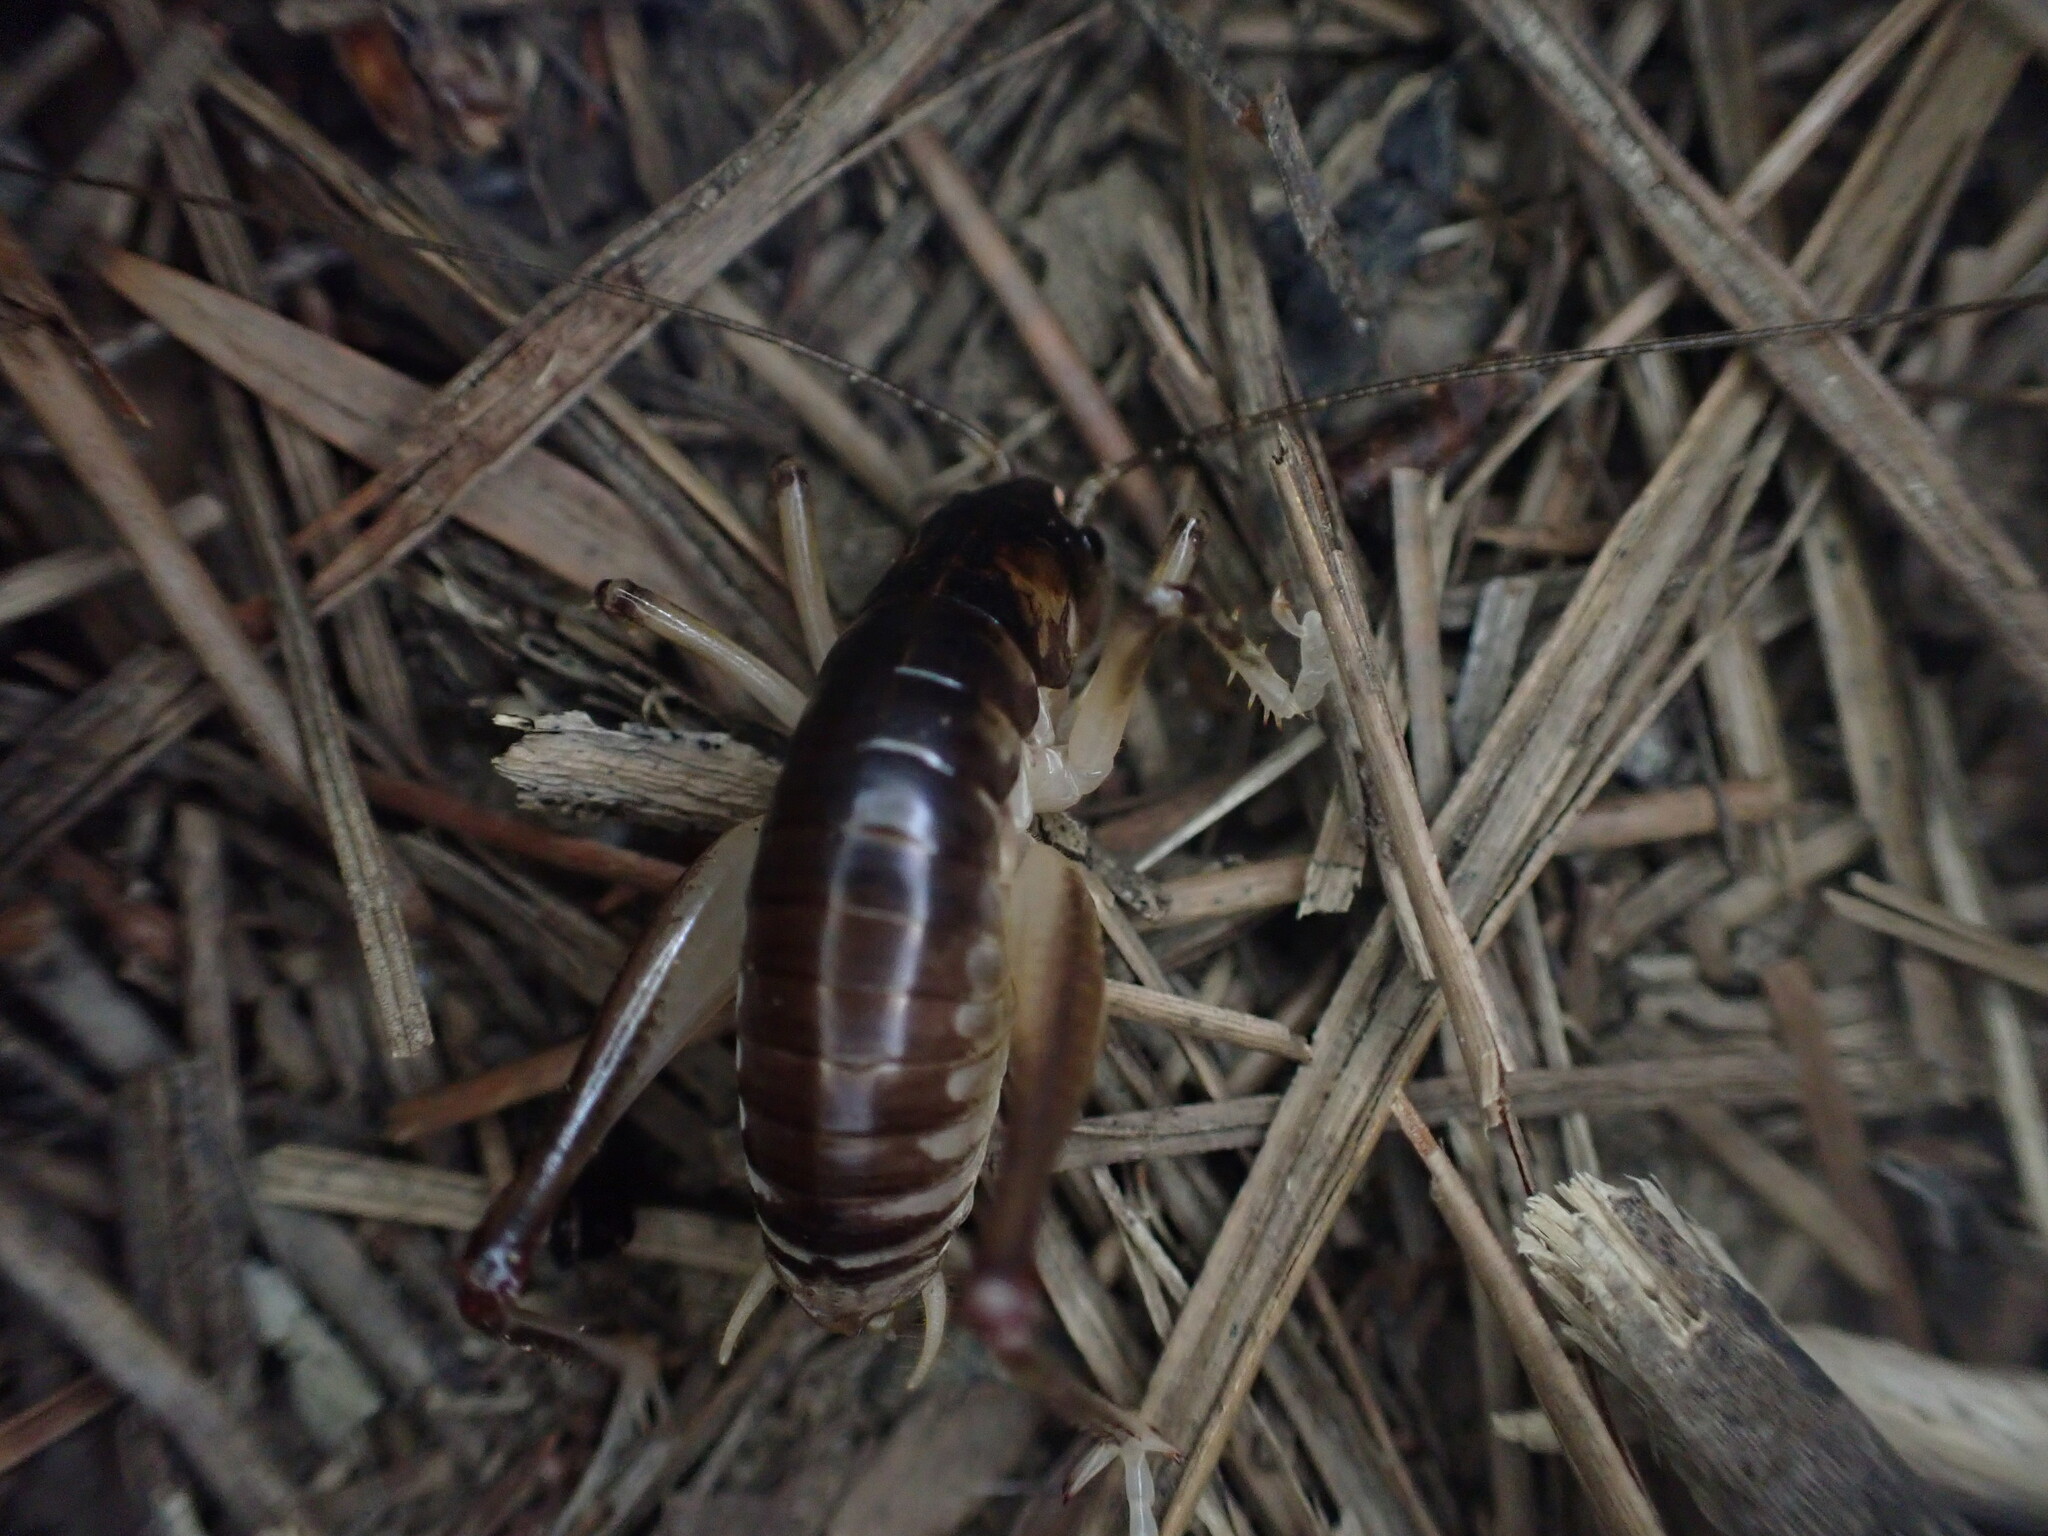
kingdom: Animalia
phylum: Arthropoda
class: Insecta
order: Orthoptera
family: Anostostomatidae
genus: Hemiandrus
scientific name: Hemiandrus pallitarsis
